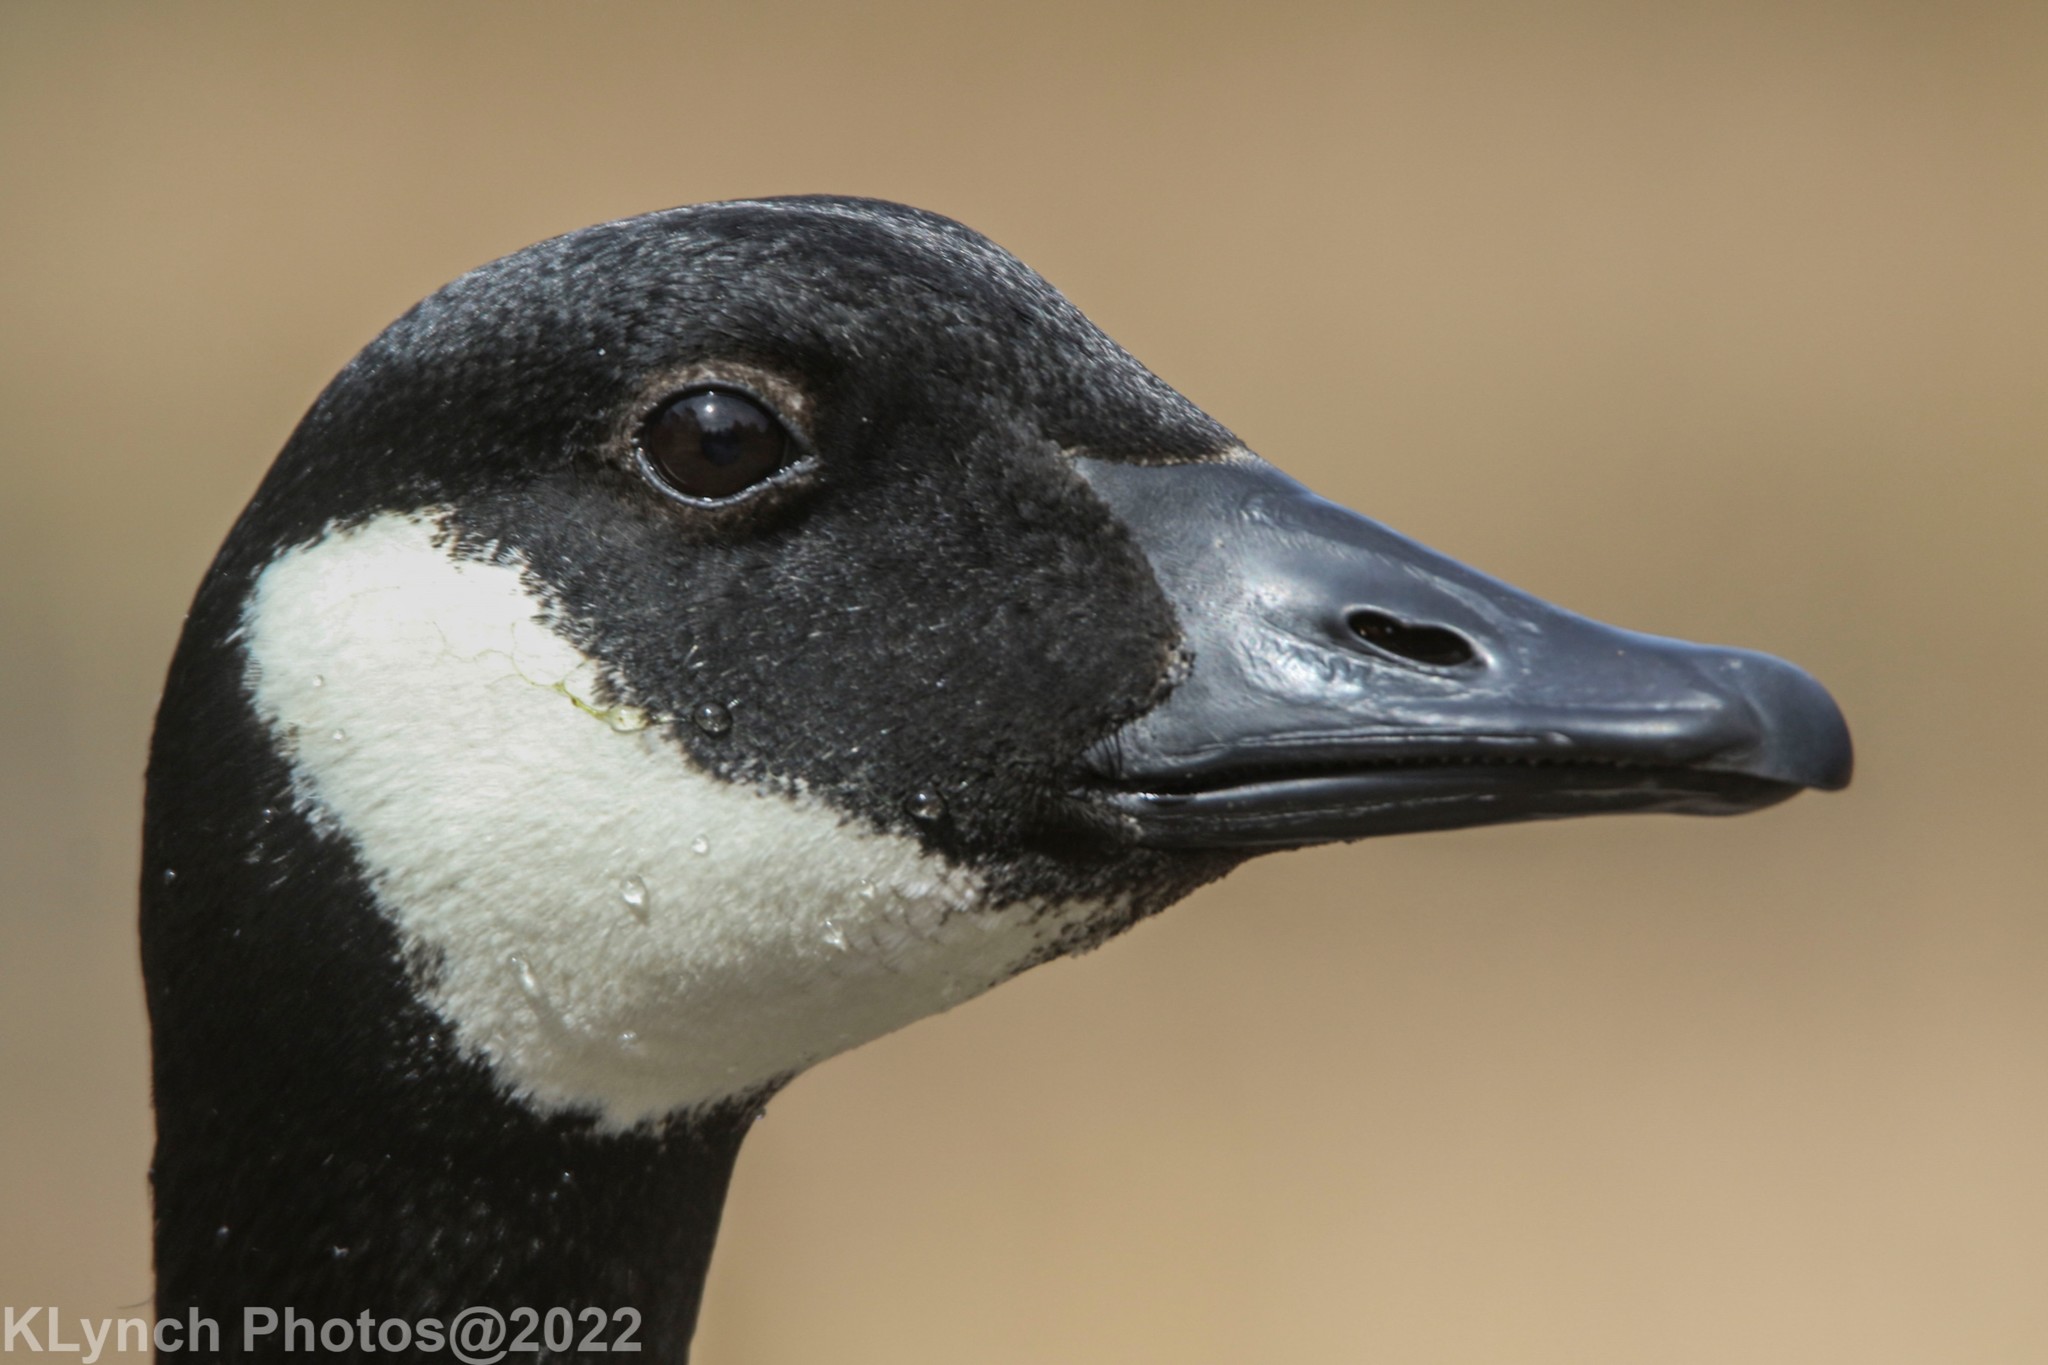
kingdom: Animalia
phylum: Chordata
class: Aves
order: Anseriformes
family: Anatidae
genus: Branta
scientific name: Branta canadensis
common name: Canada goose
